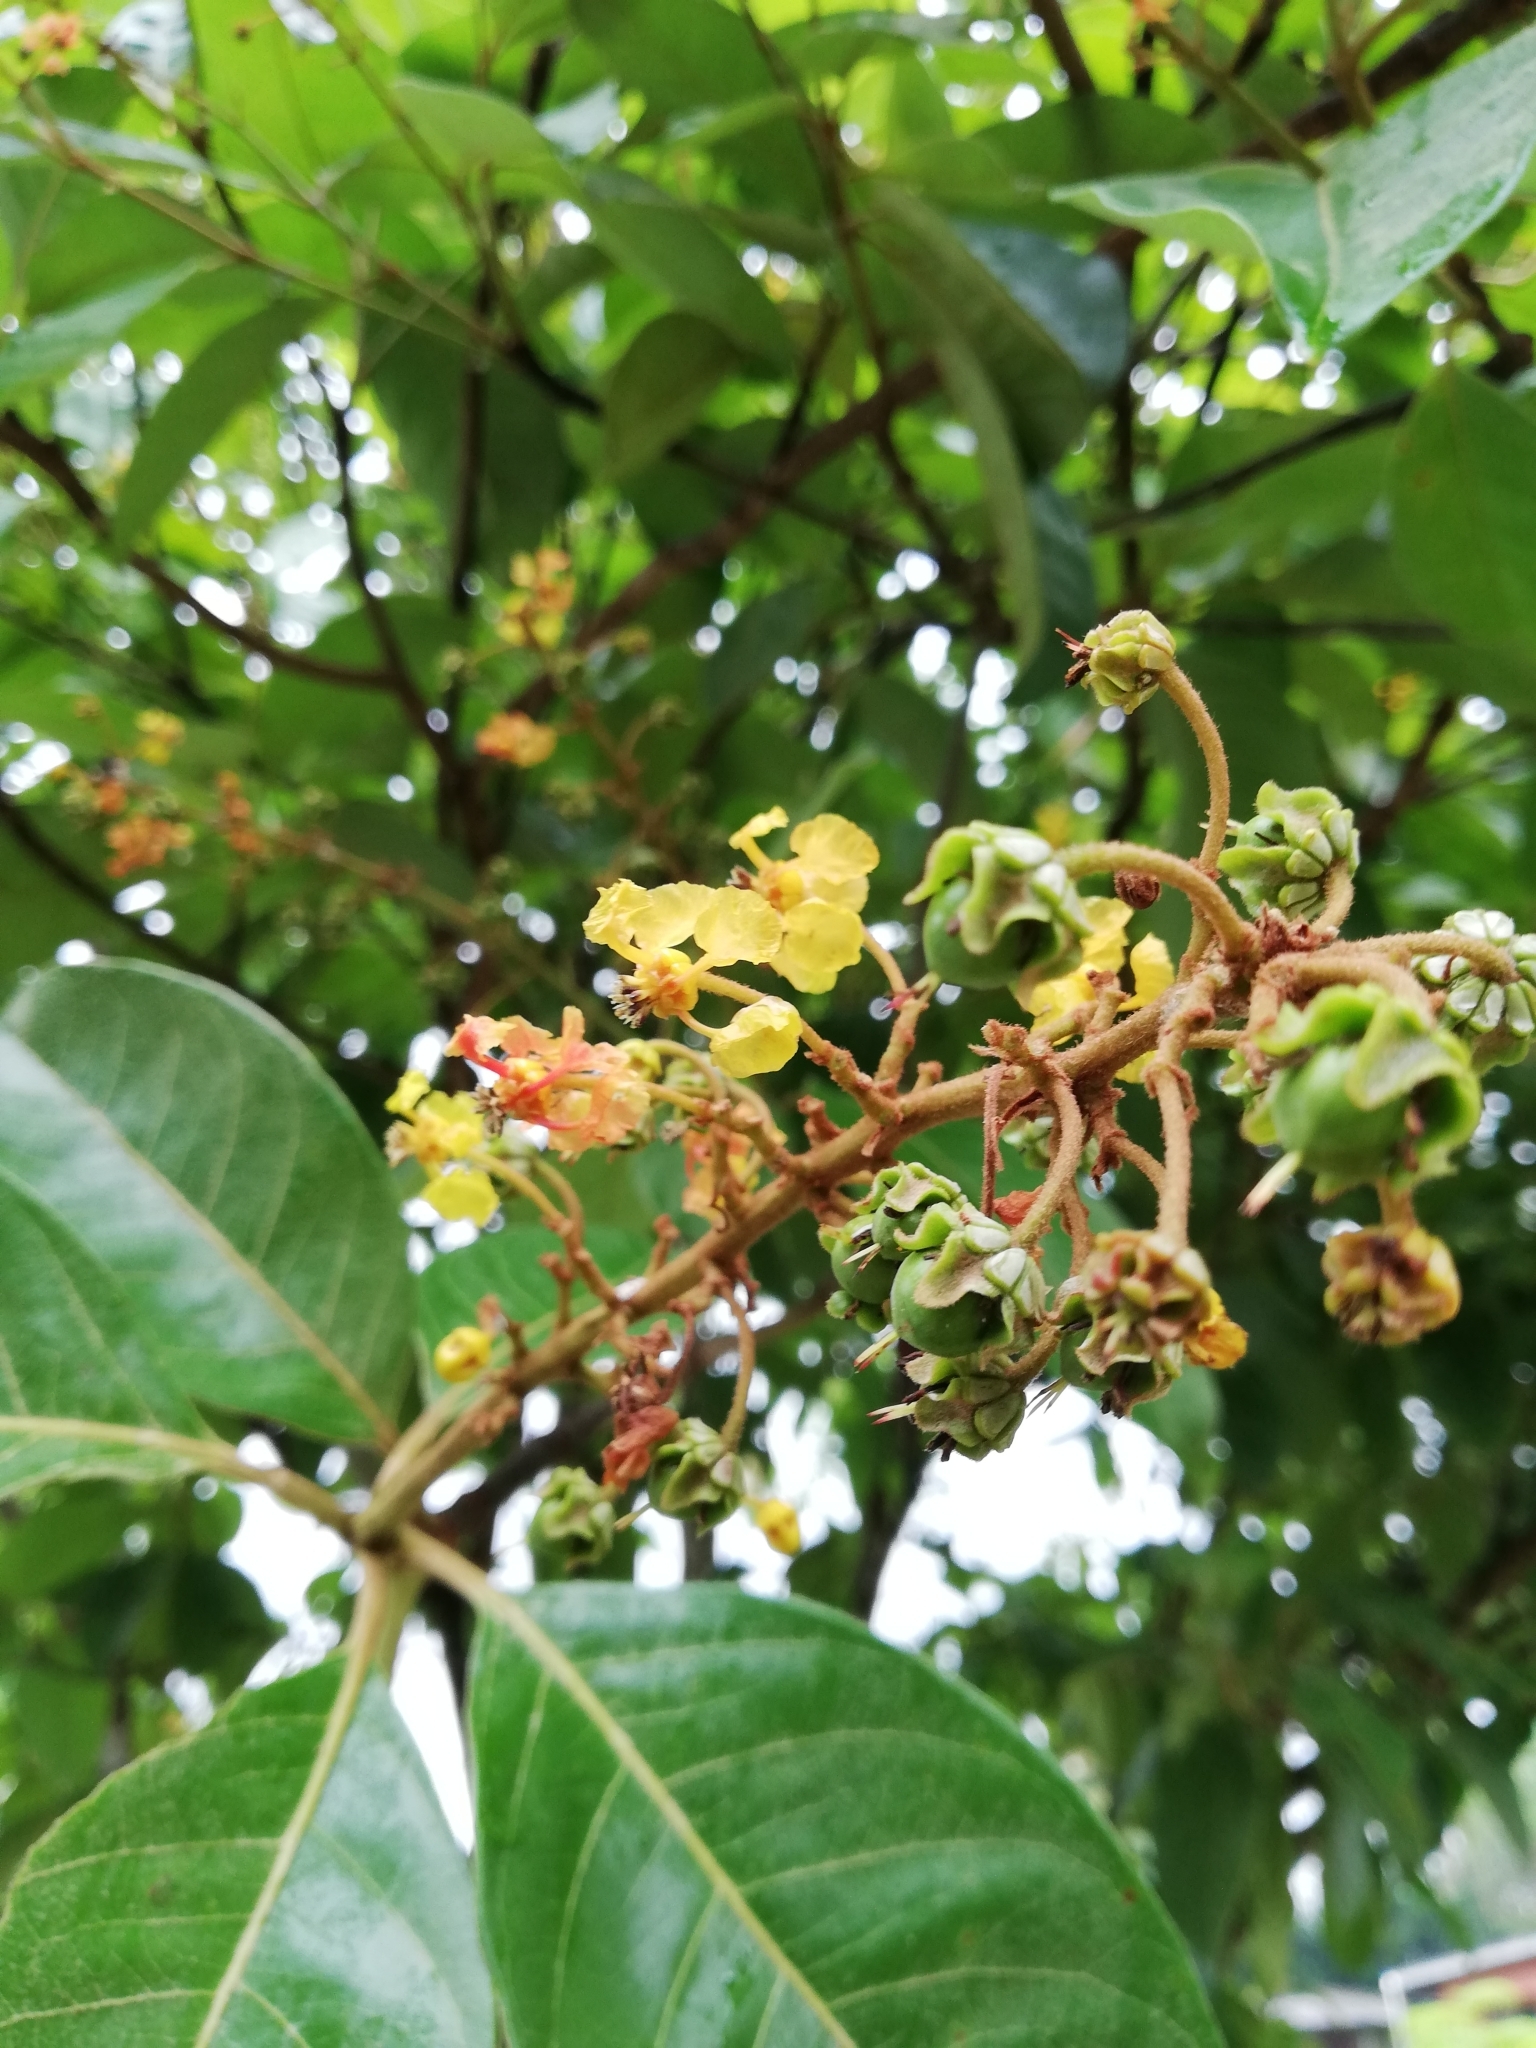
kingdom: Plantae
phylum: Tracheophyta
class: Magnoliopsida
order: Malpighiales
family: Malpighiaceae
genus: Byrsonima
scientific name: Byrsonima crassifolia
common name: Golden spoon
